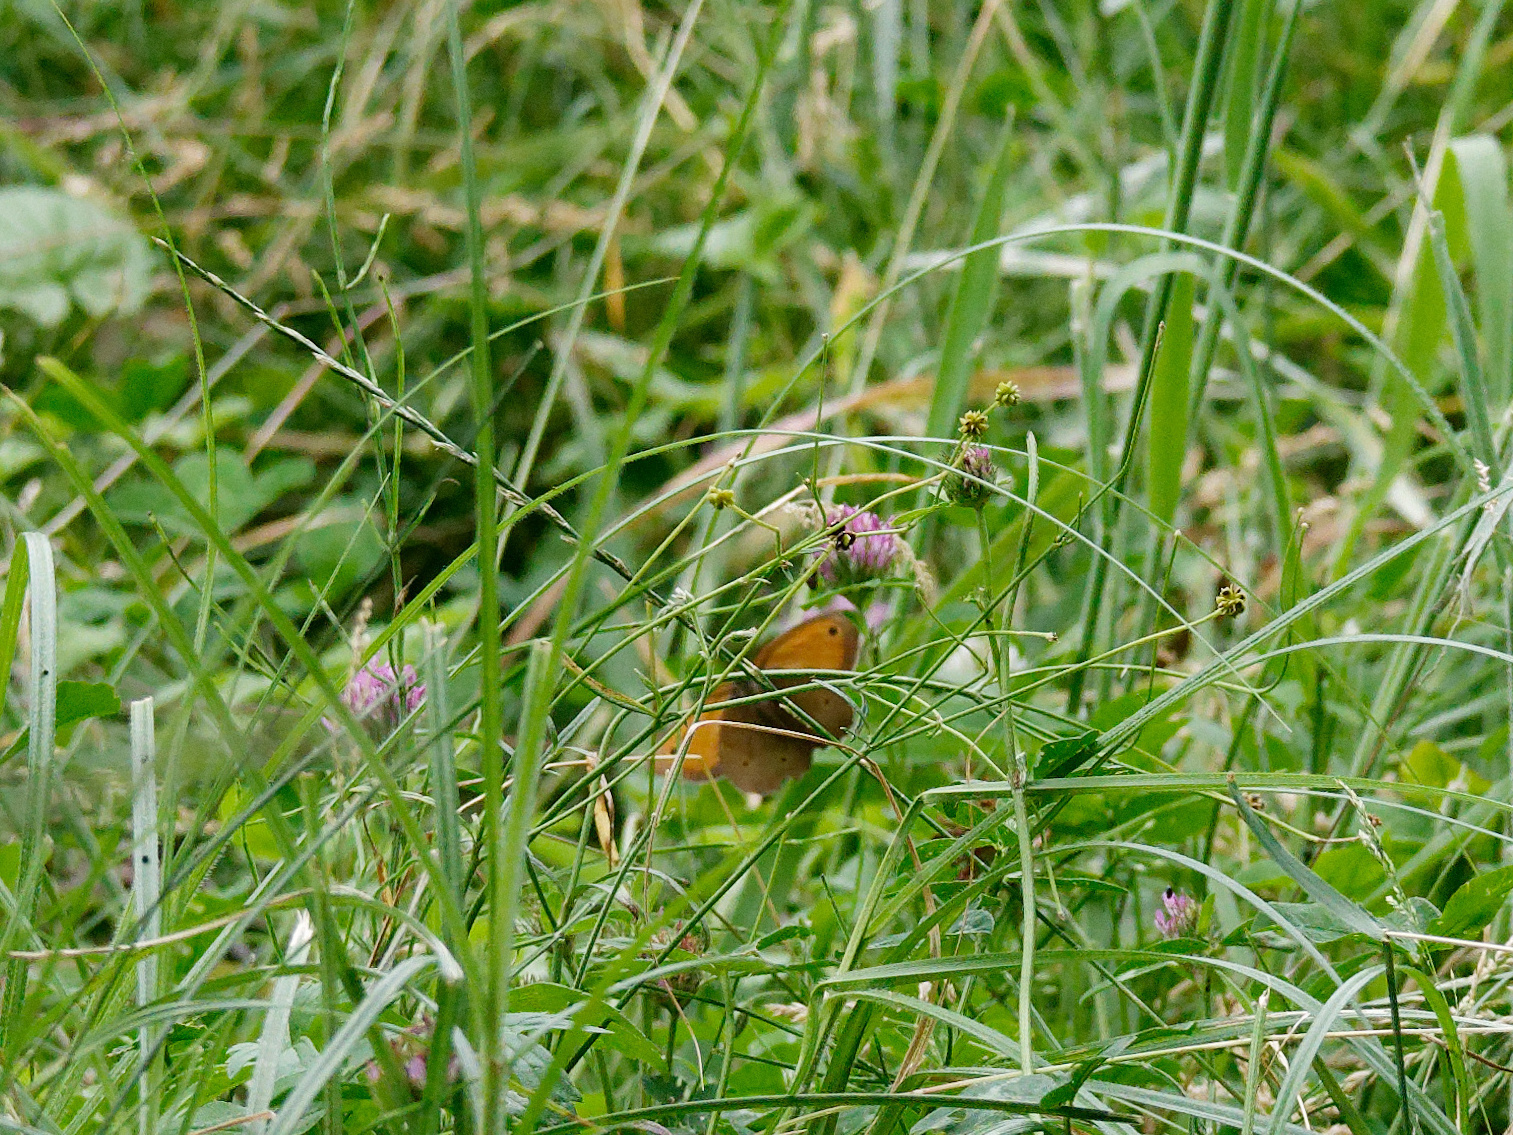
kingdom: Animalia
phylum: Arthropoda
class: Insecta
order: Lepidoptera
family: Nymphalidae
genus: Maniola
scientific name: Maniola jurtina
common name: Meadow brown
